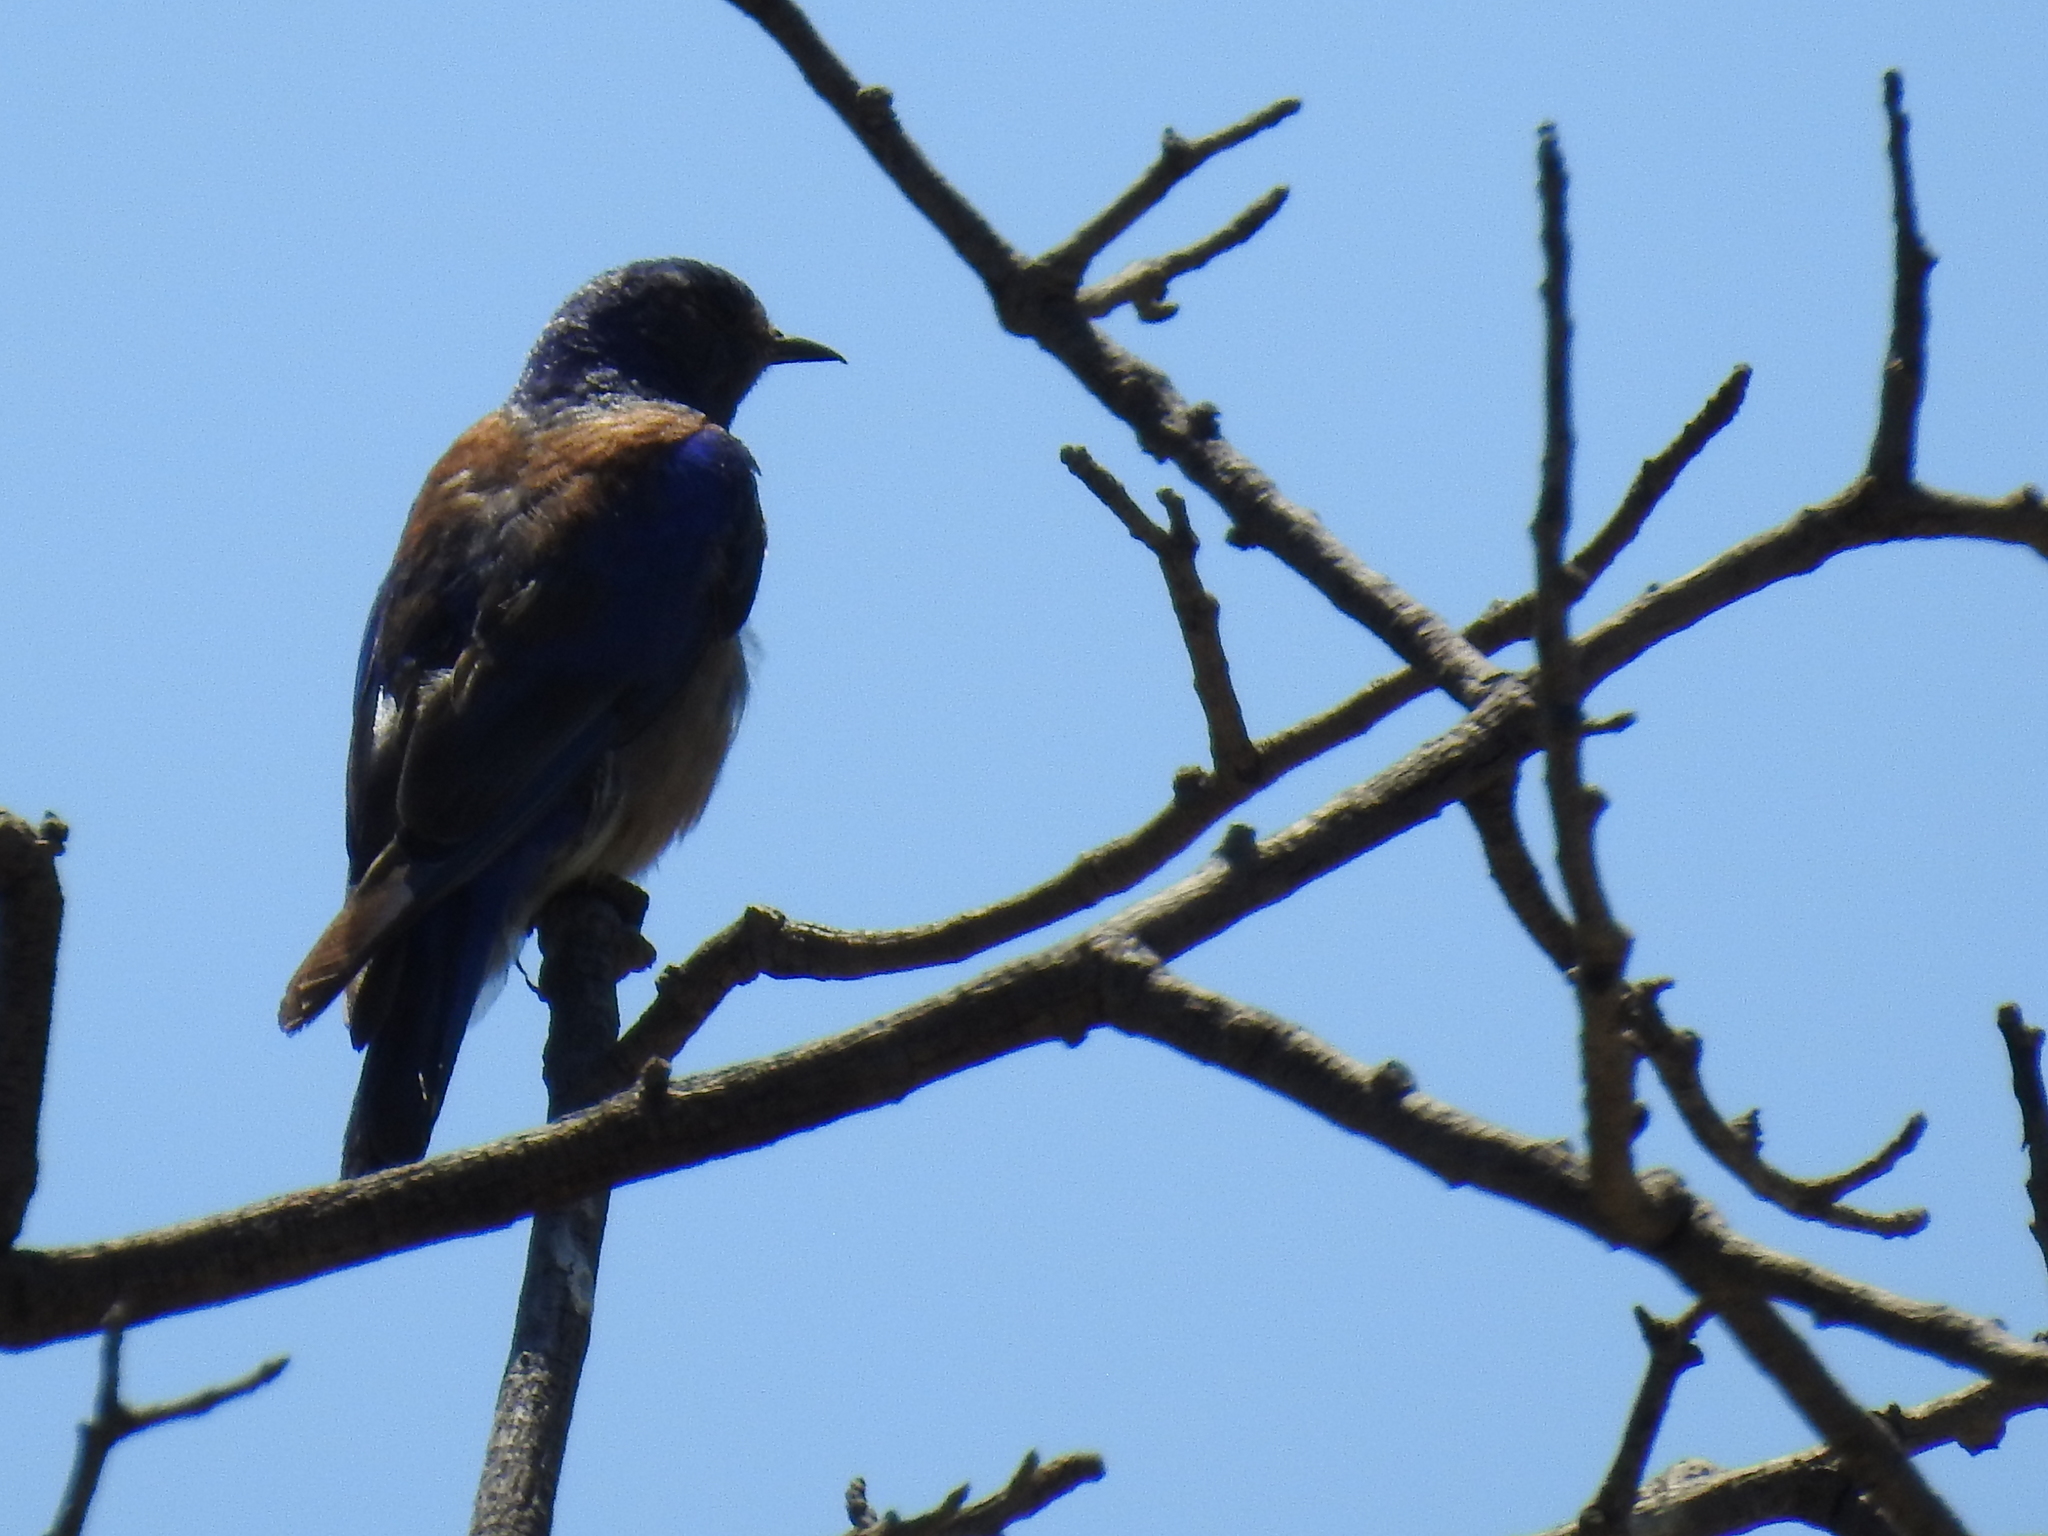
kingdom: Animalia
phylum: Chordata
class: Aves
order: Passeriformes
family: Turdidae
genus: Sialia
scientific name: Sialia mexicana
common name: Western bluebird
